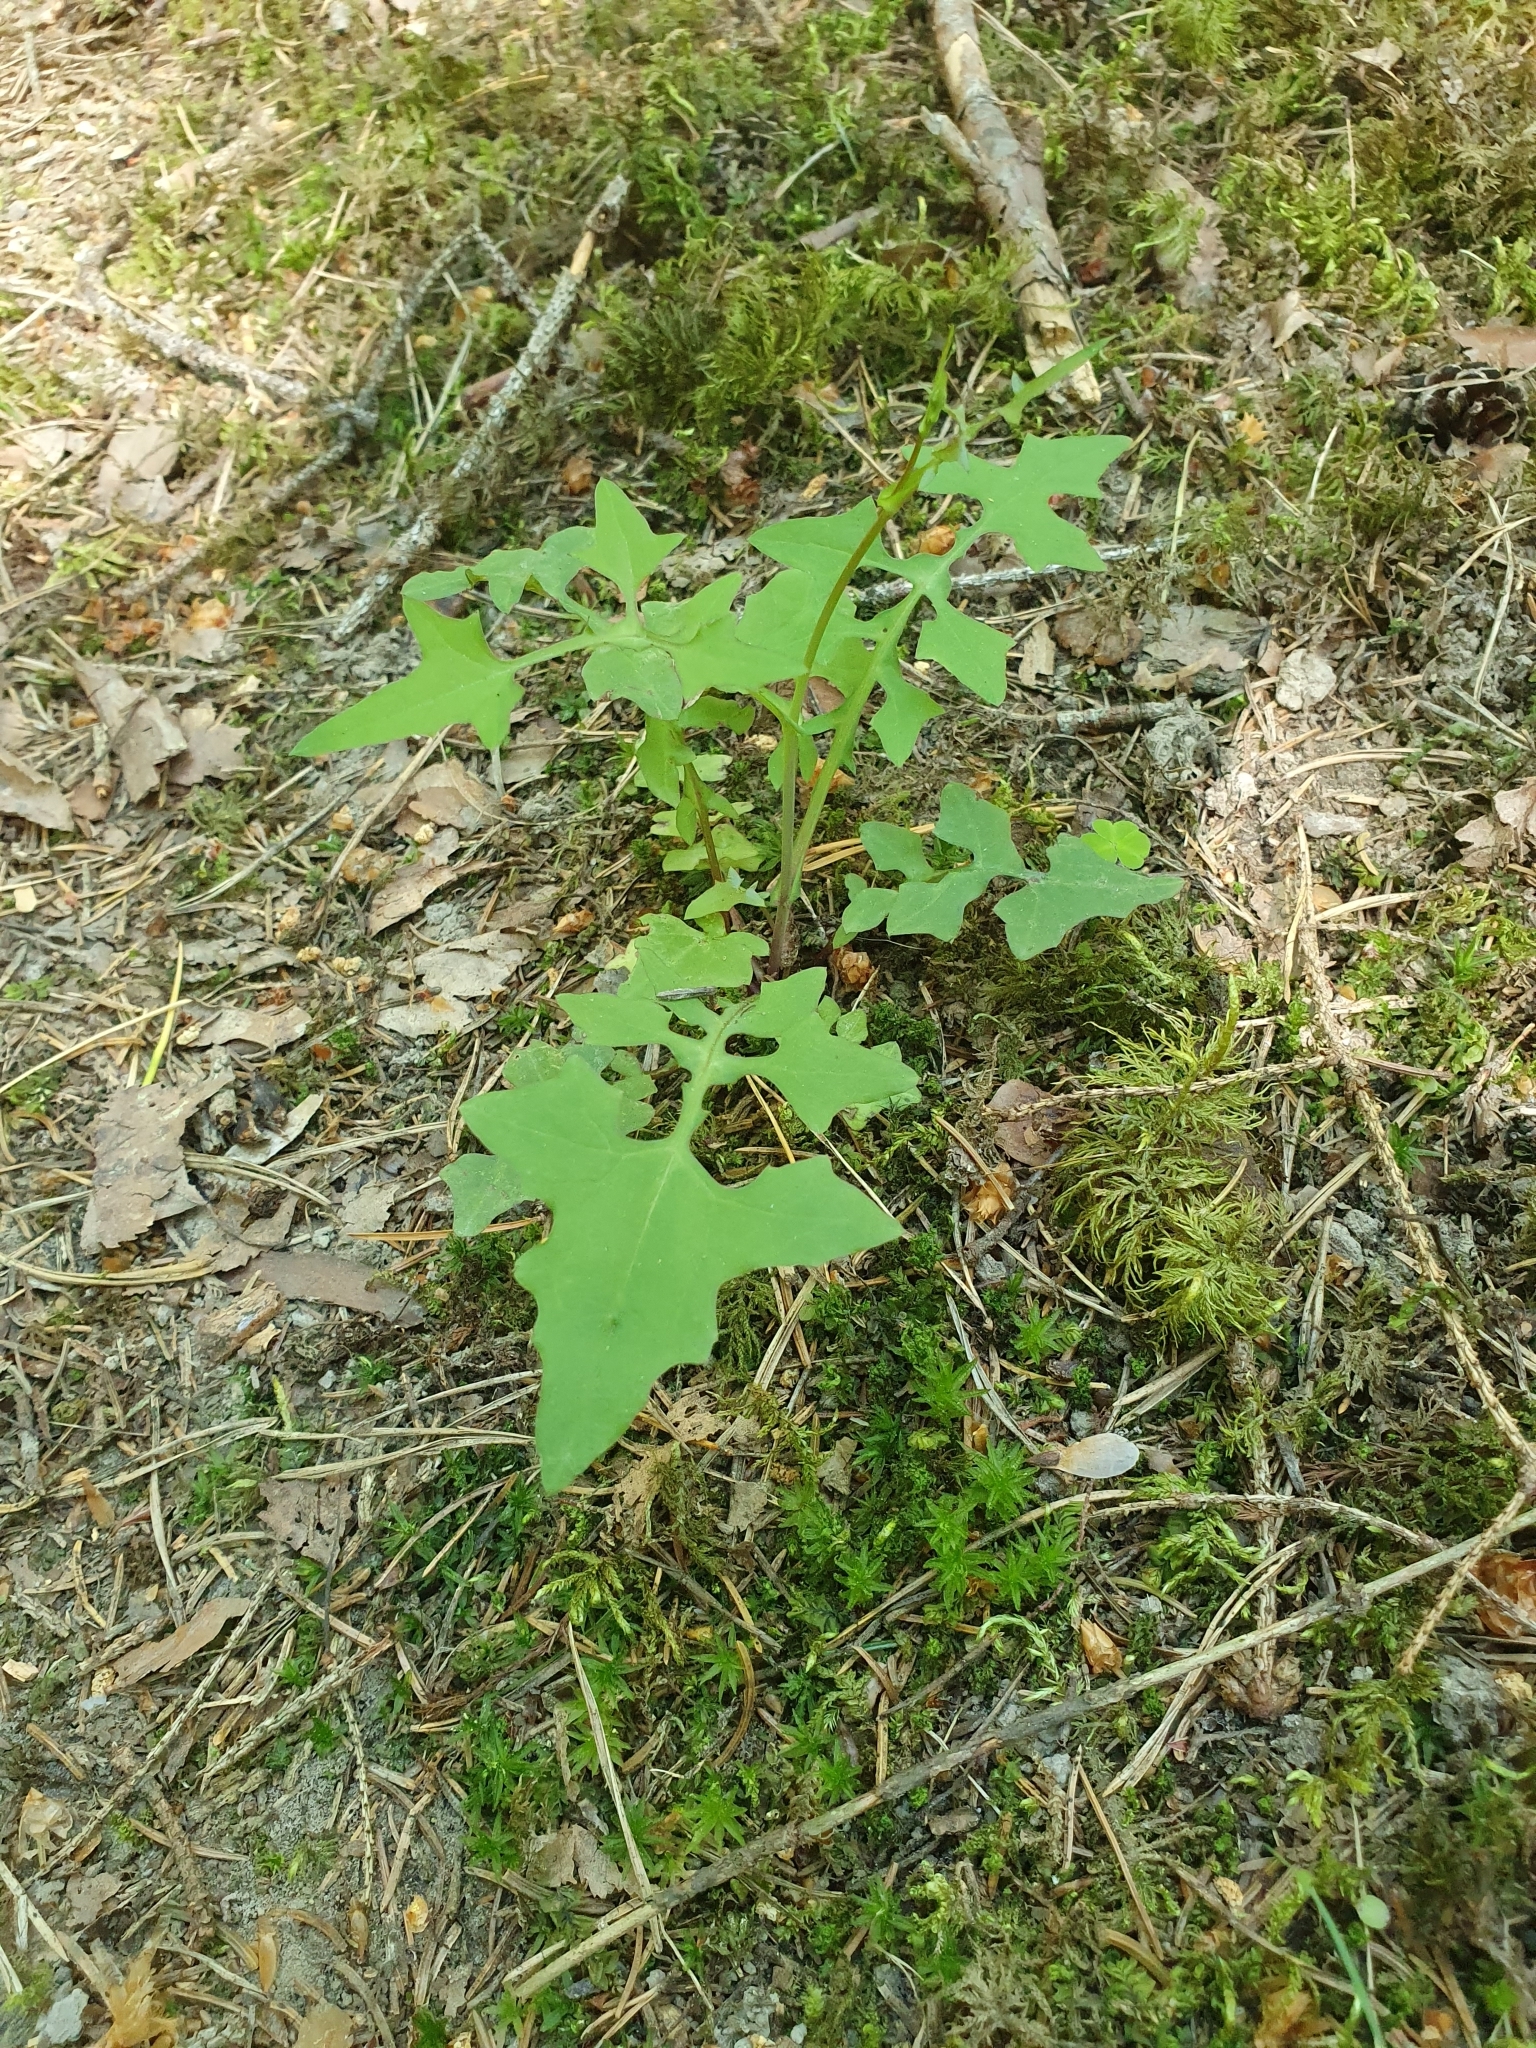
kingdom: Plantae
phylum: Tracheophyta
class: Magnoliopsida
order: Asterales
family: Asteraceae
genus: Mycelis
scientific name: Mycelis muralis
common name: Wall lettuce
